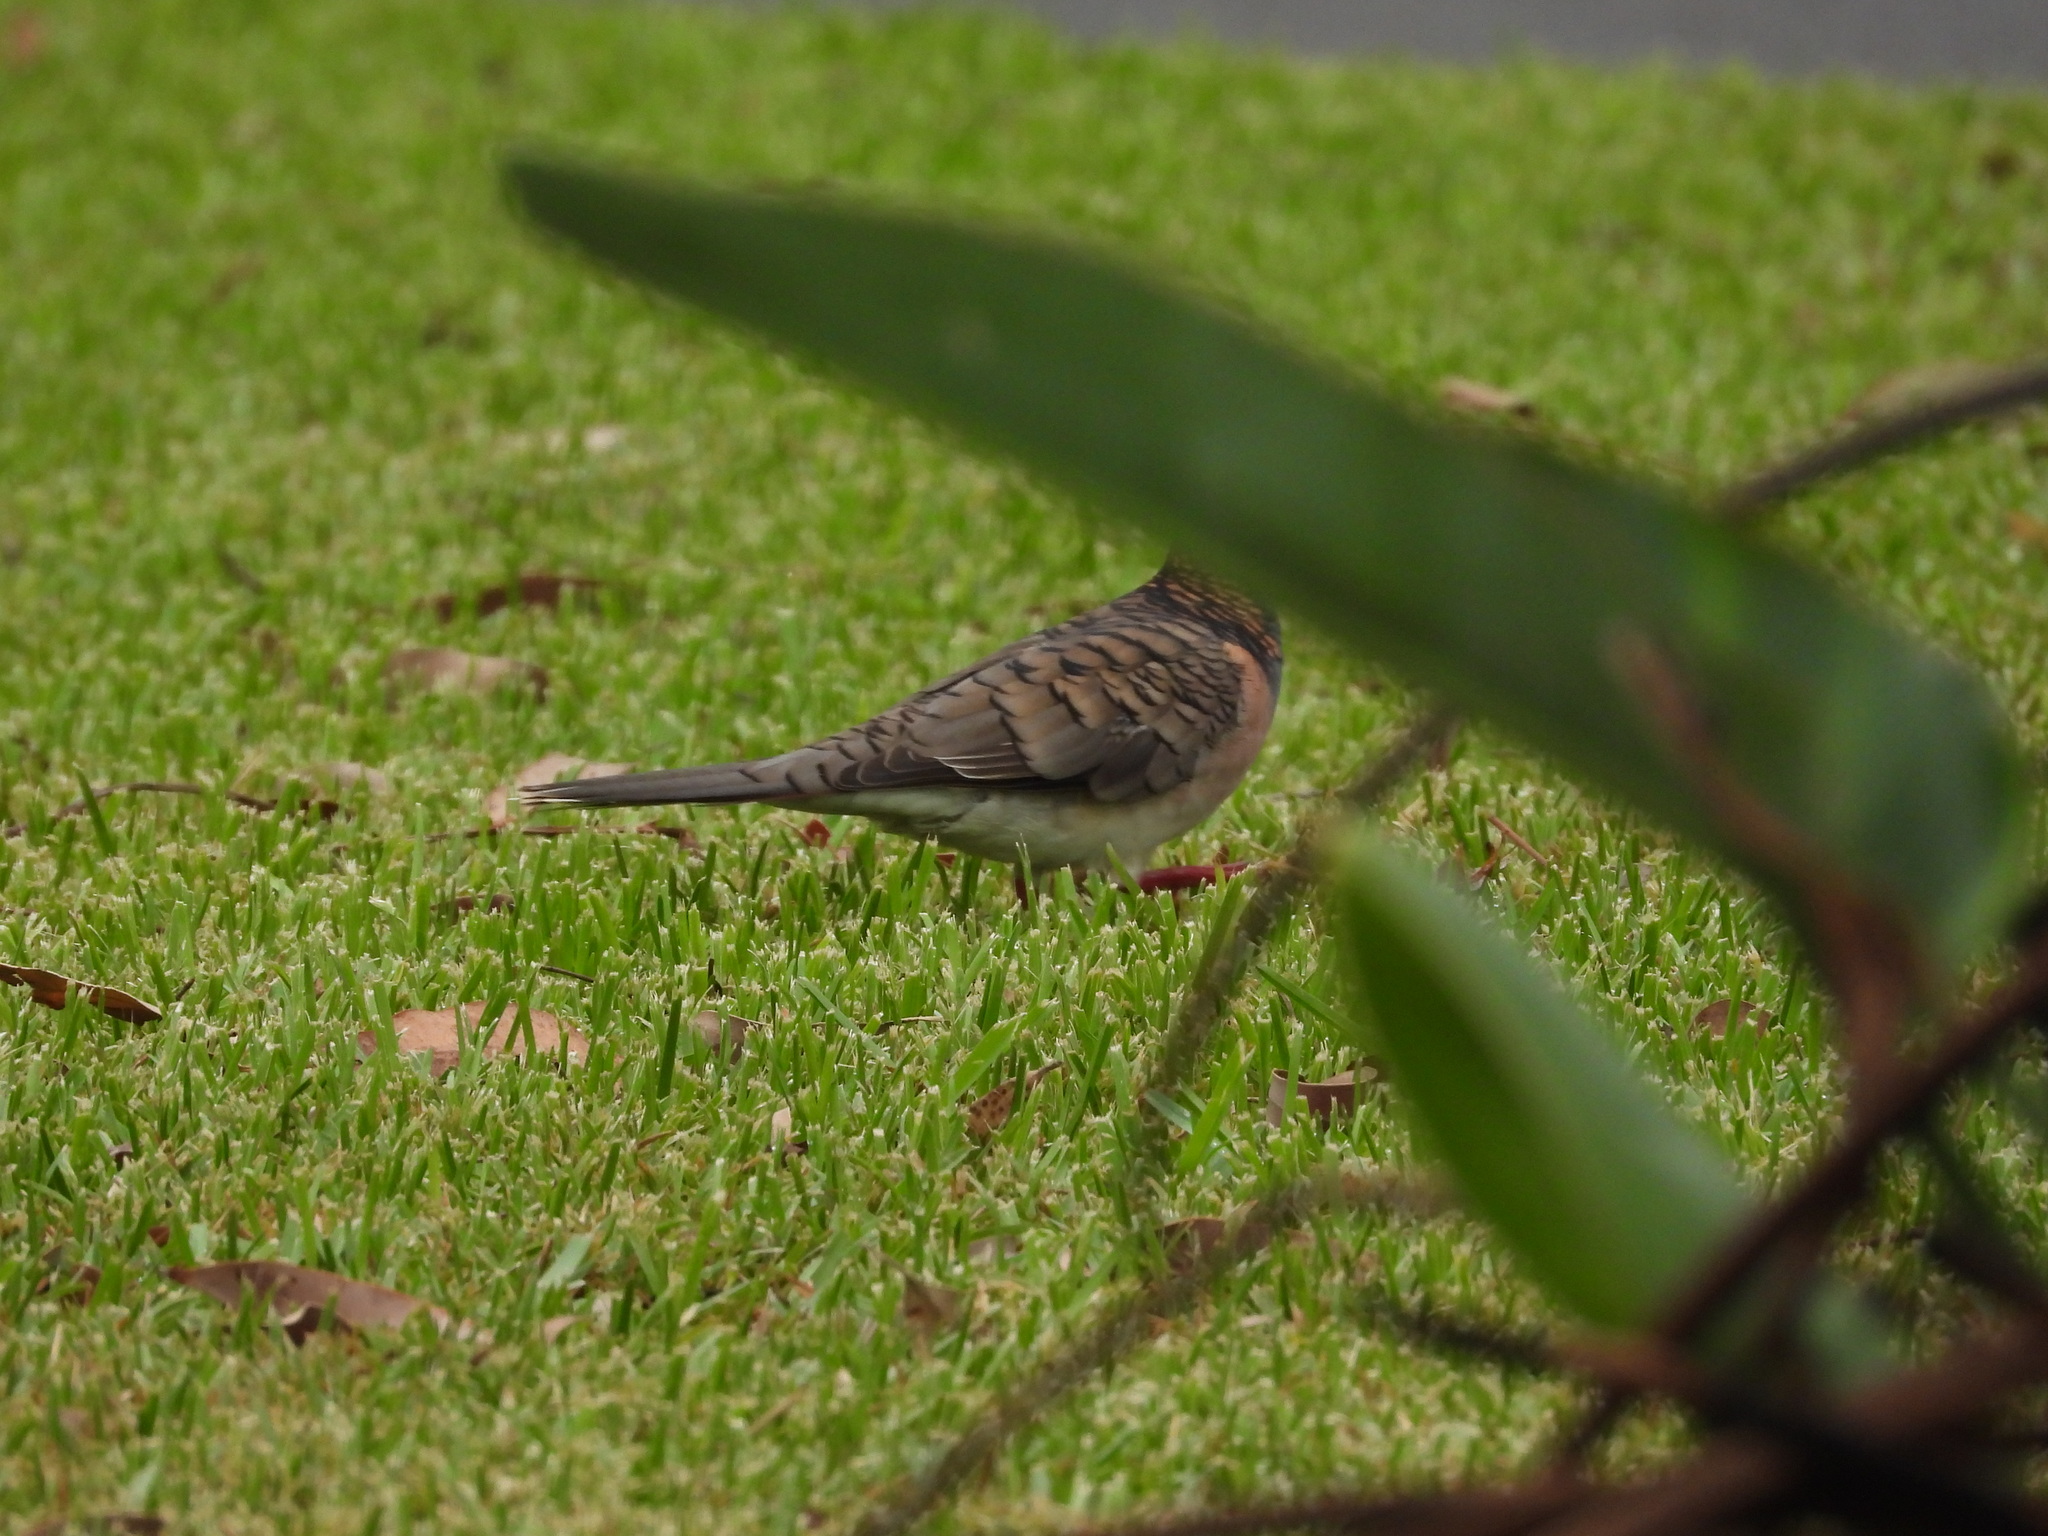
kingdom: Animalia
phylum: Chordata
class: Aves
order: Columbiformes
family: Columbidae
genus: Geopelia
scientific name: Geopelia humeralis
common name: Bar-shouldered dove
